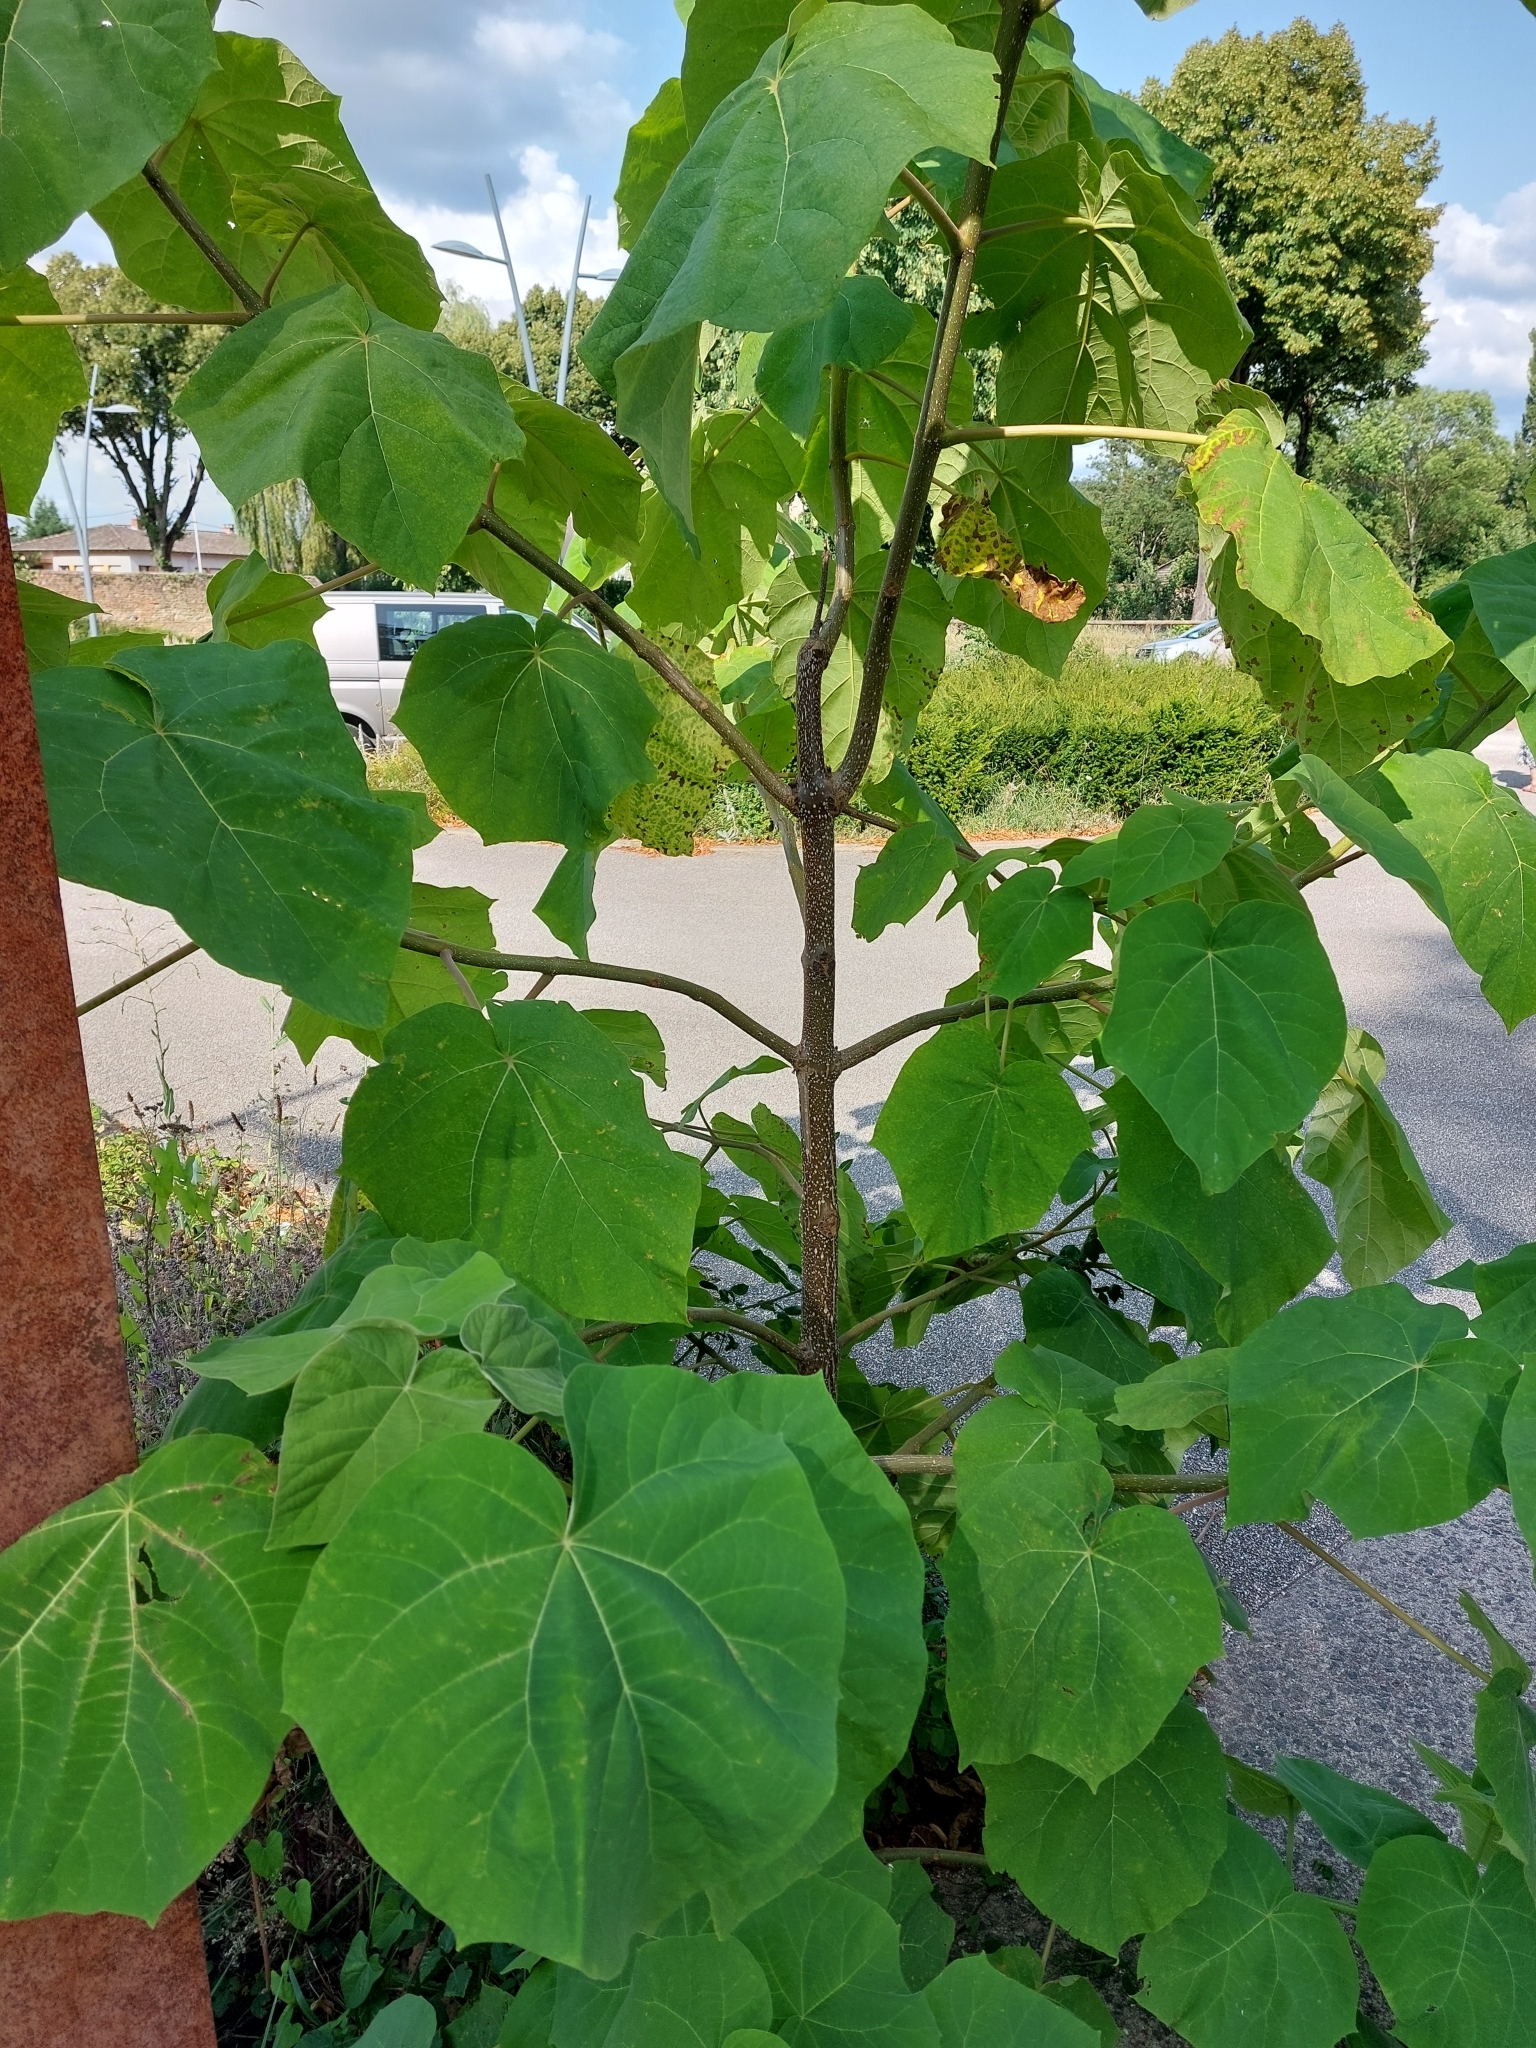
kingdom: Plantae
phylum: Tracheophyta
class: Magnoliopsida
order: Lamiales
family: Paulowniaceae
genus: Paulownia
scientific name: Paulownia tomentosa
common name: Foxglove-tree
